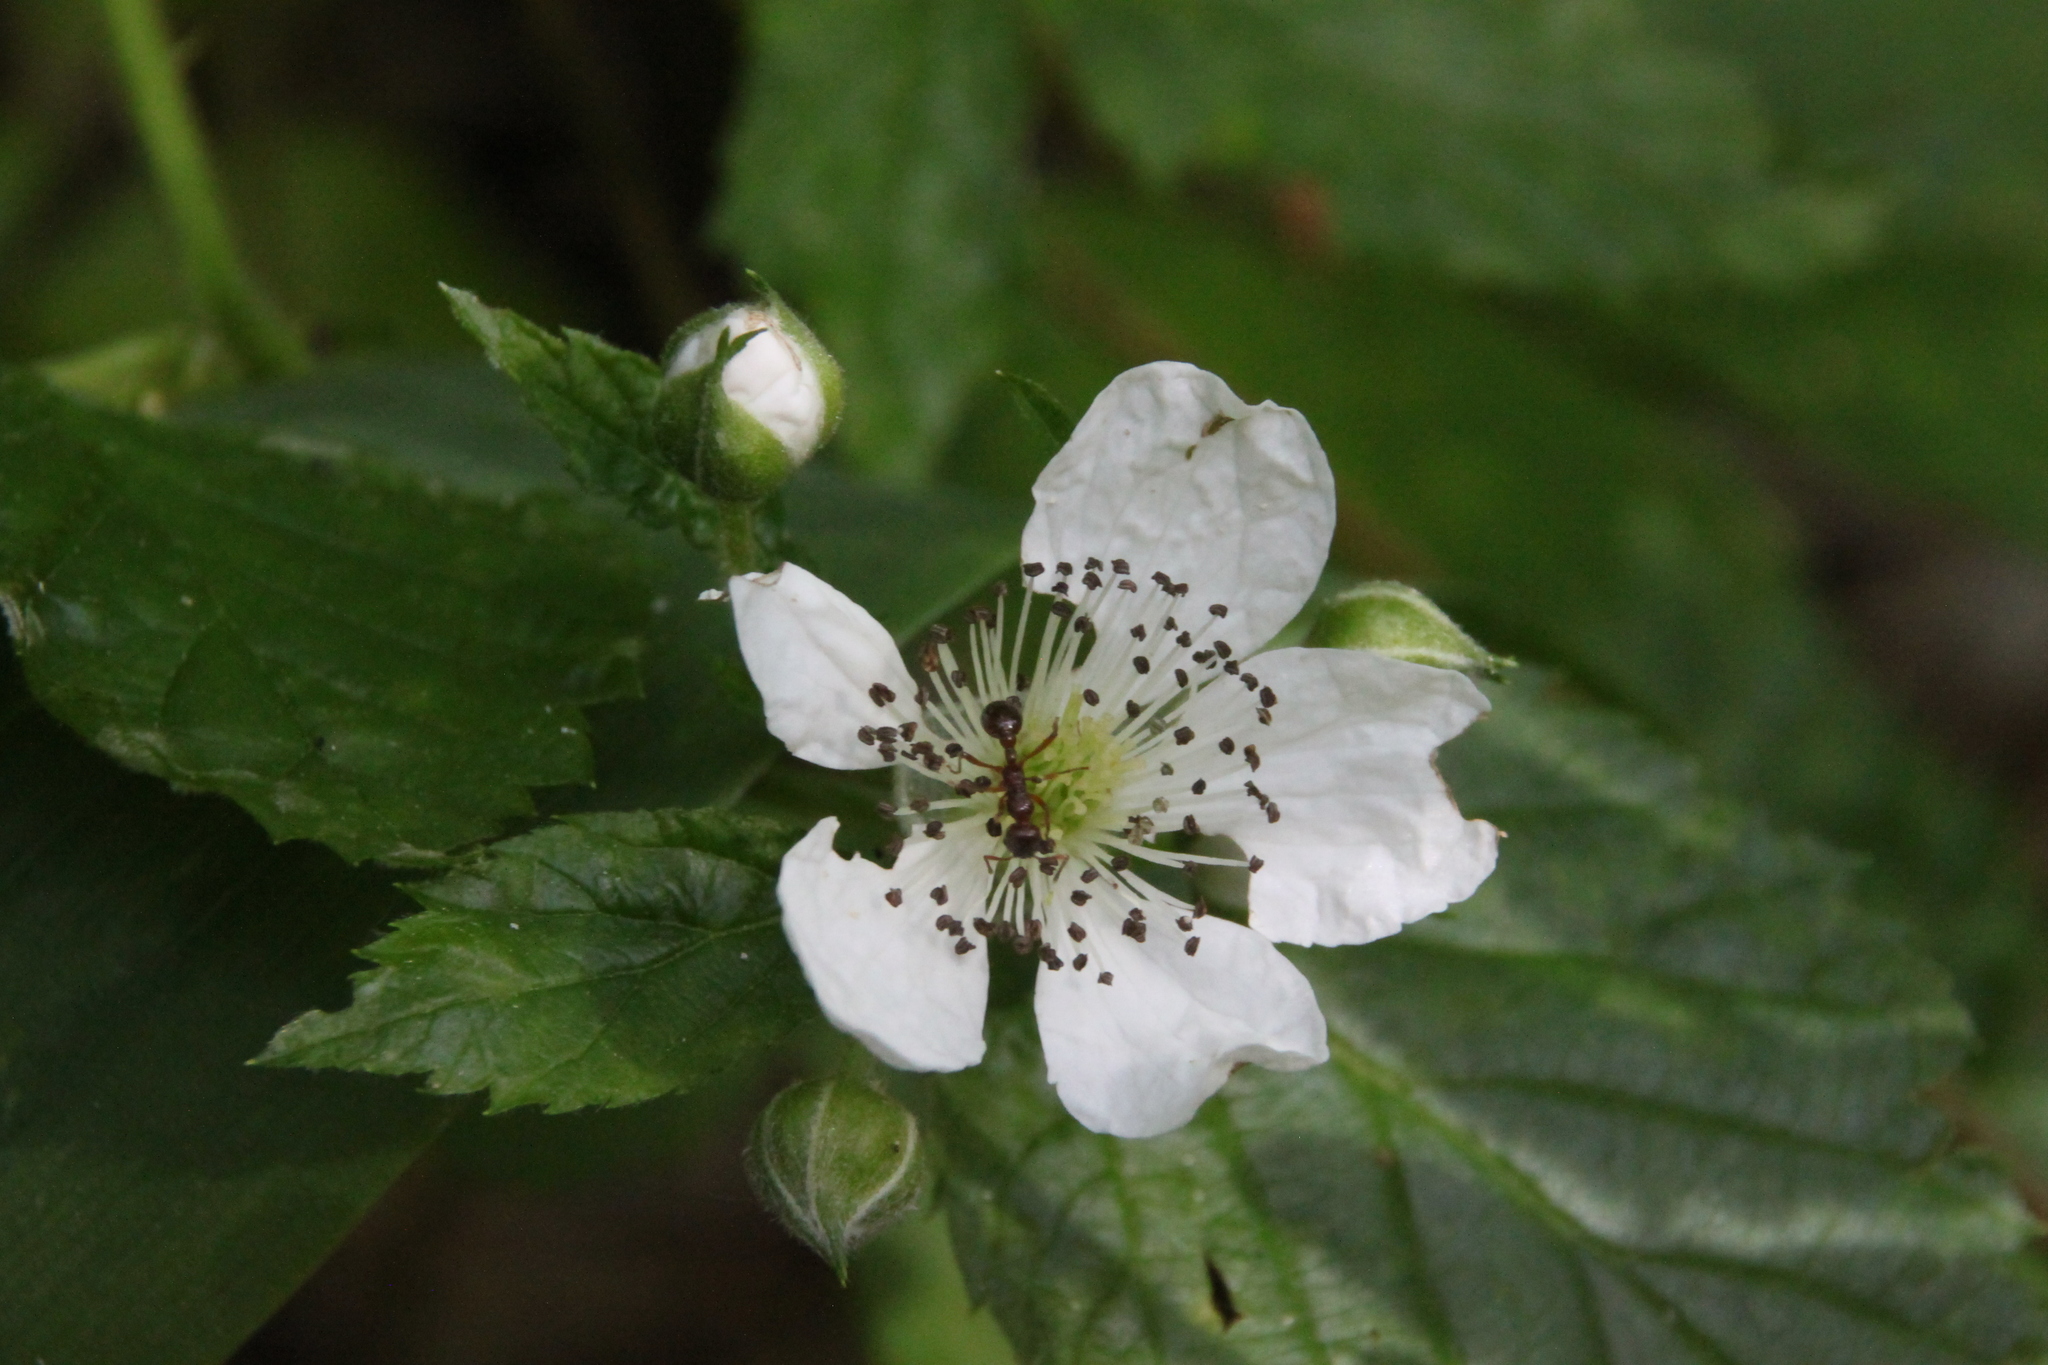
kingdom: Plantae
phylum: Tracheophyta
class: Magnoliopsida
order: Rosales
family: Rosaceae
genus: Rubus
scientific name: Rubus polonicus
